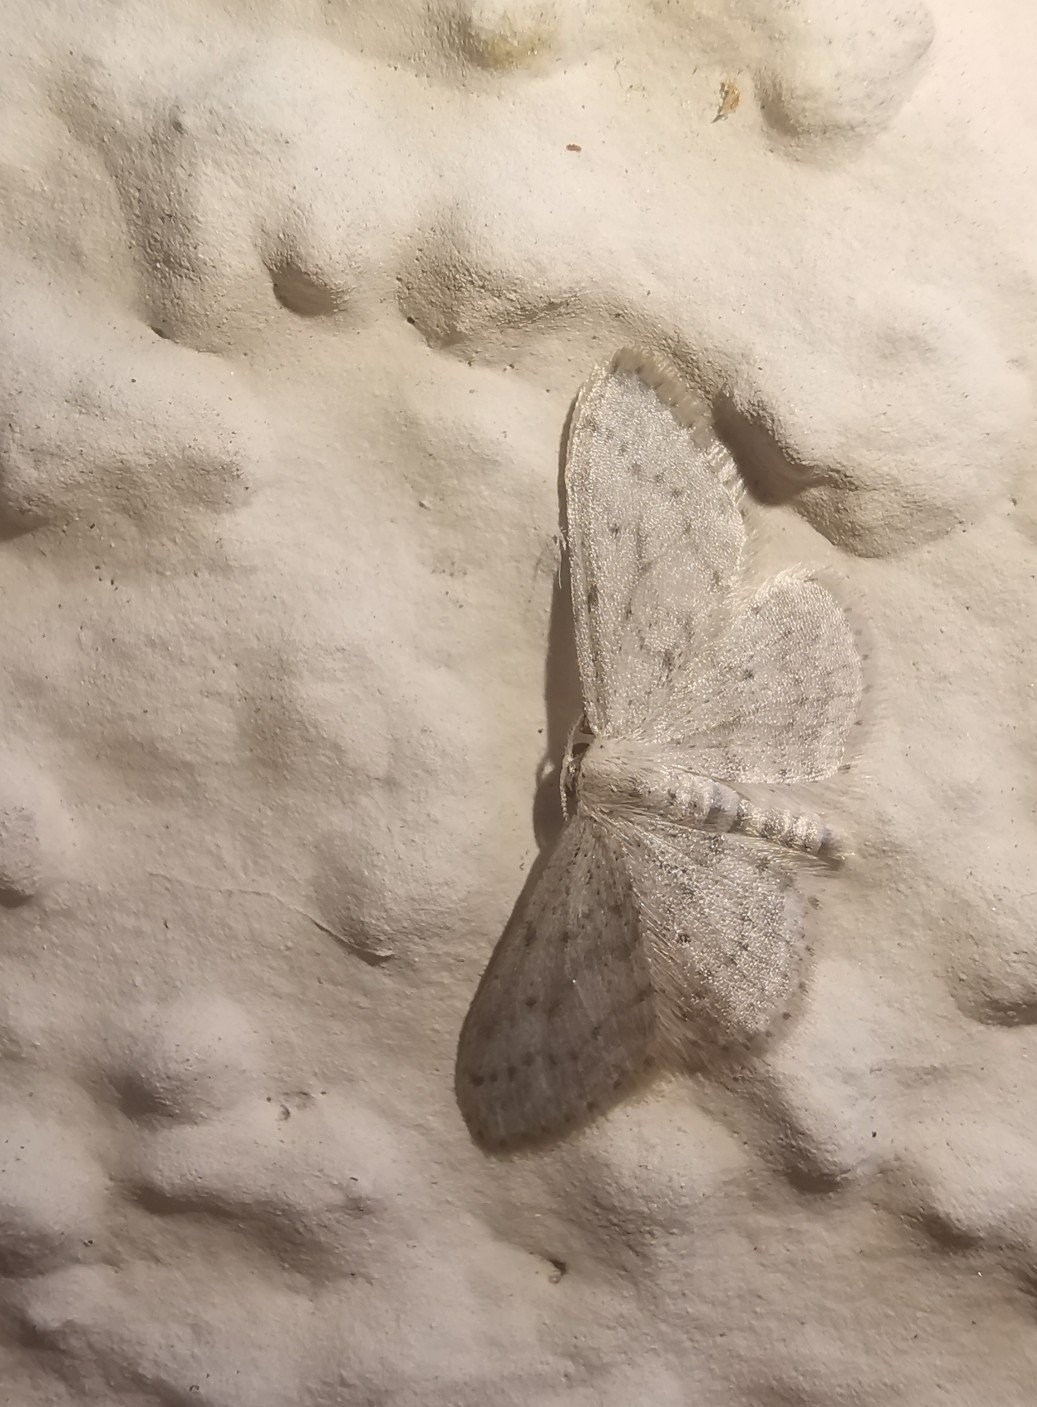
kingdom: Animalia
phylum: Arthropoda
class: Insecta
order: Lepidoptera
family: Geometridae
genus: Idaea
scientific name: Idaea seriata
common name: Small dusty wave
